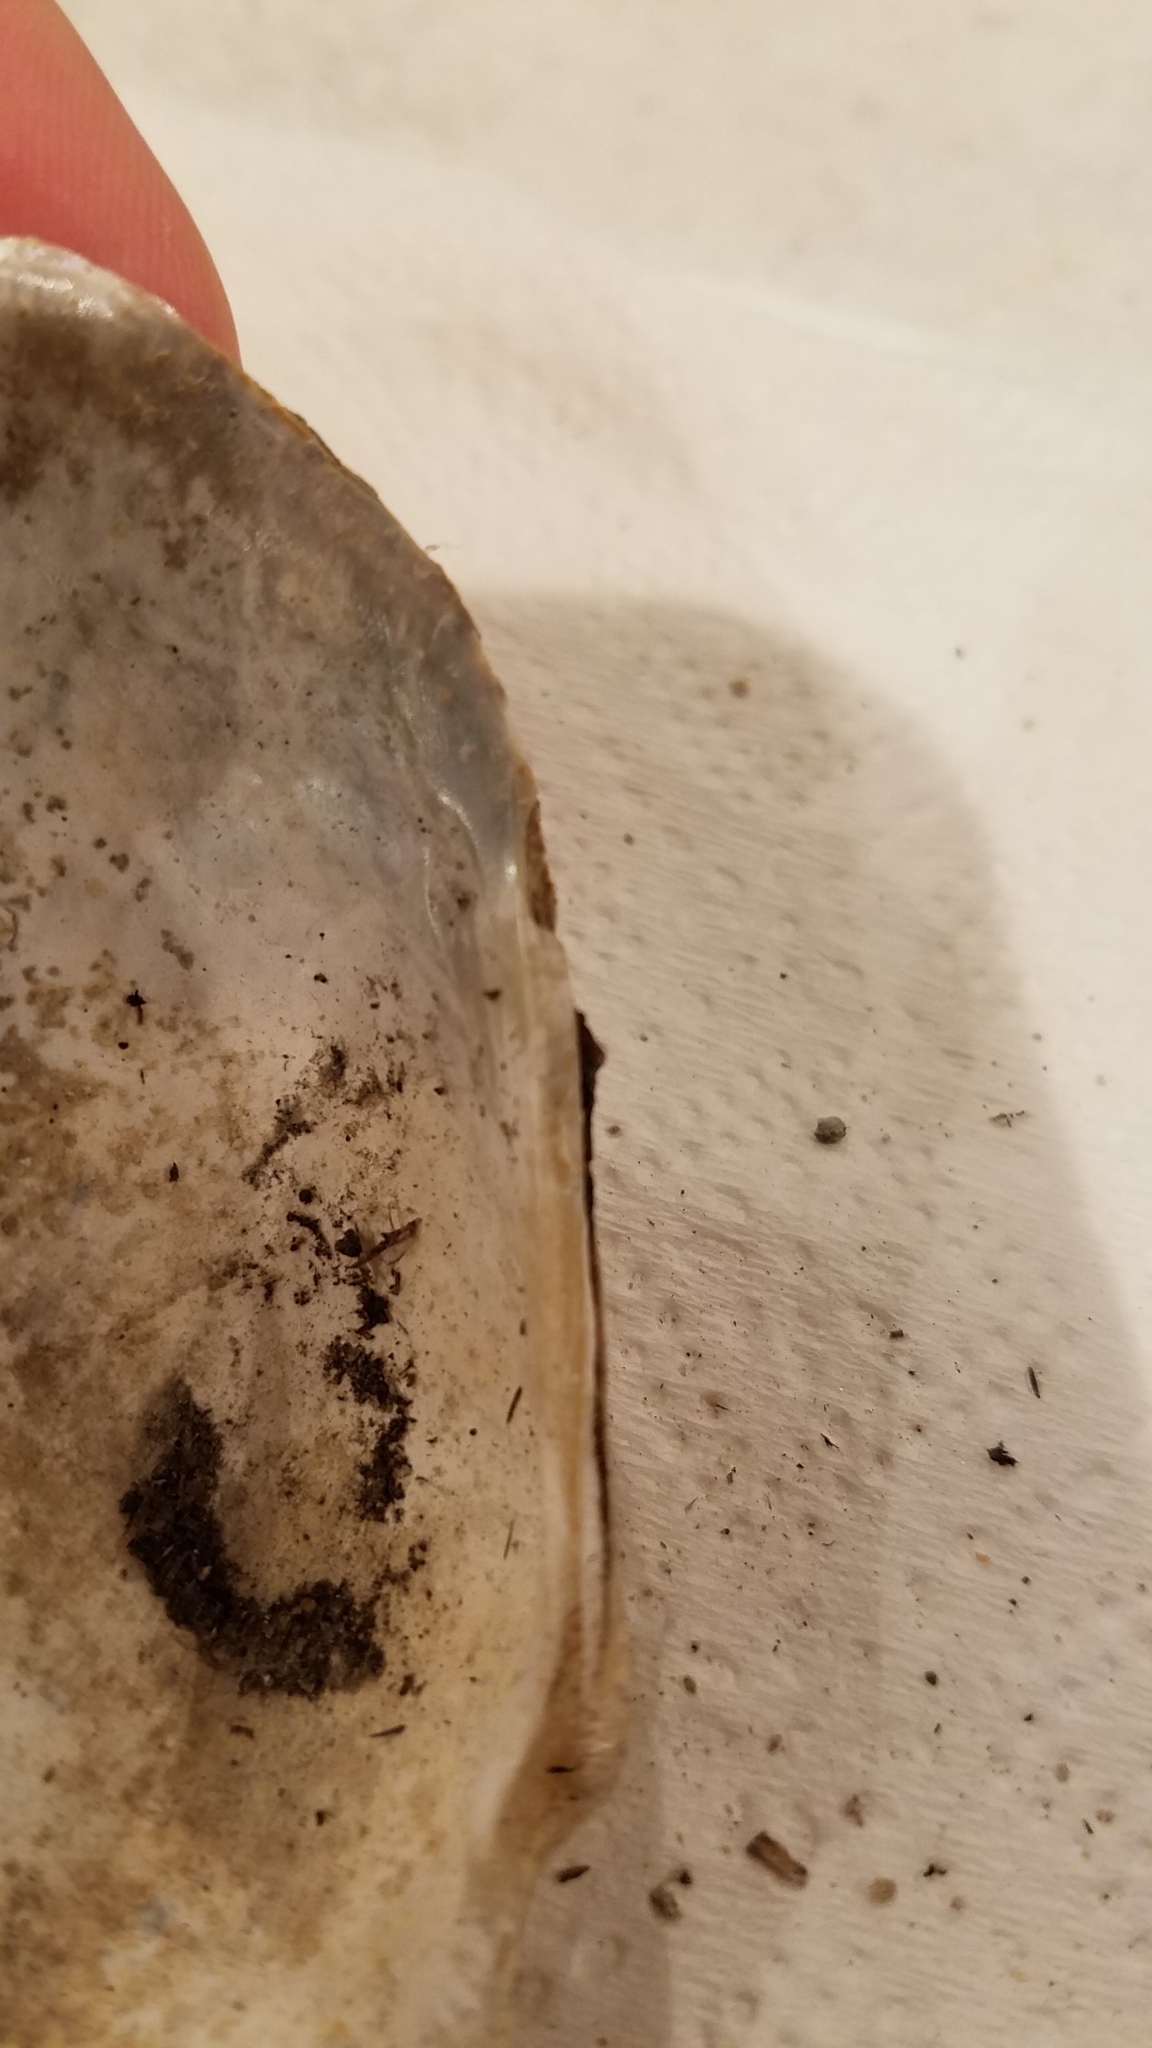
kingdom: Animalia
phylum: Mollusca
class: Bivalvia
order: Unionida
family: Unionidae
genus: Strophitus
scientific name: Strophitus undulatus
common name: Creeper
